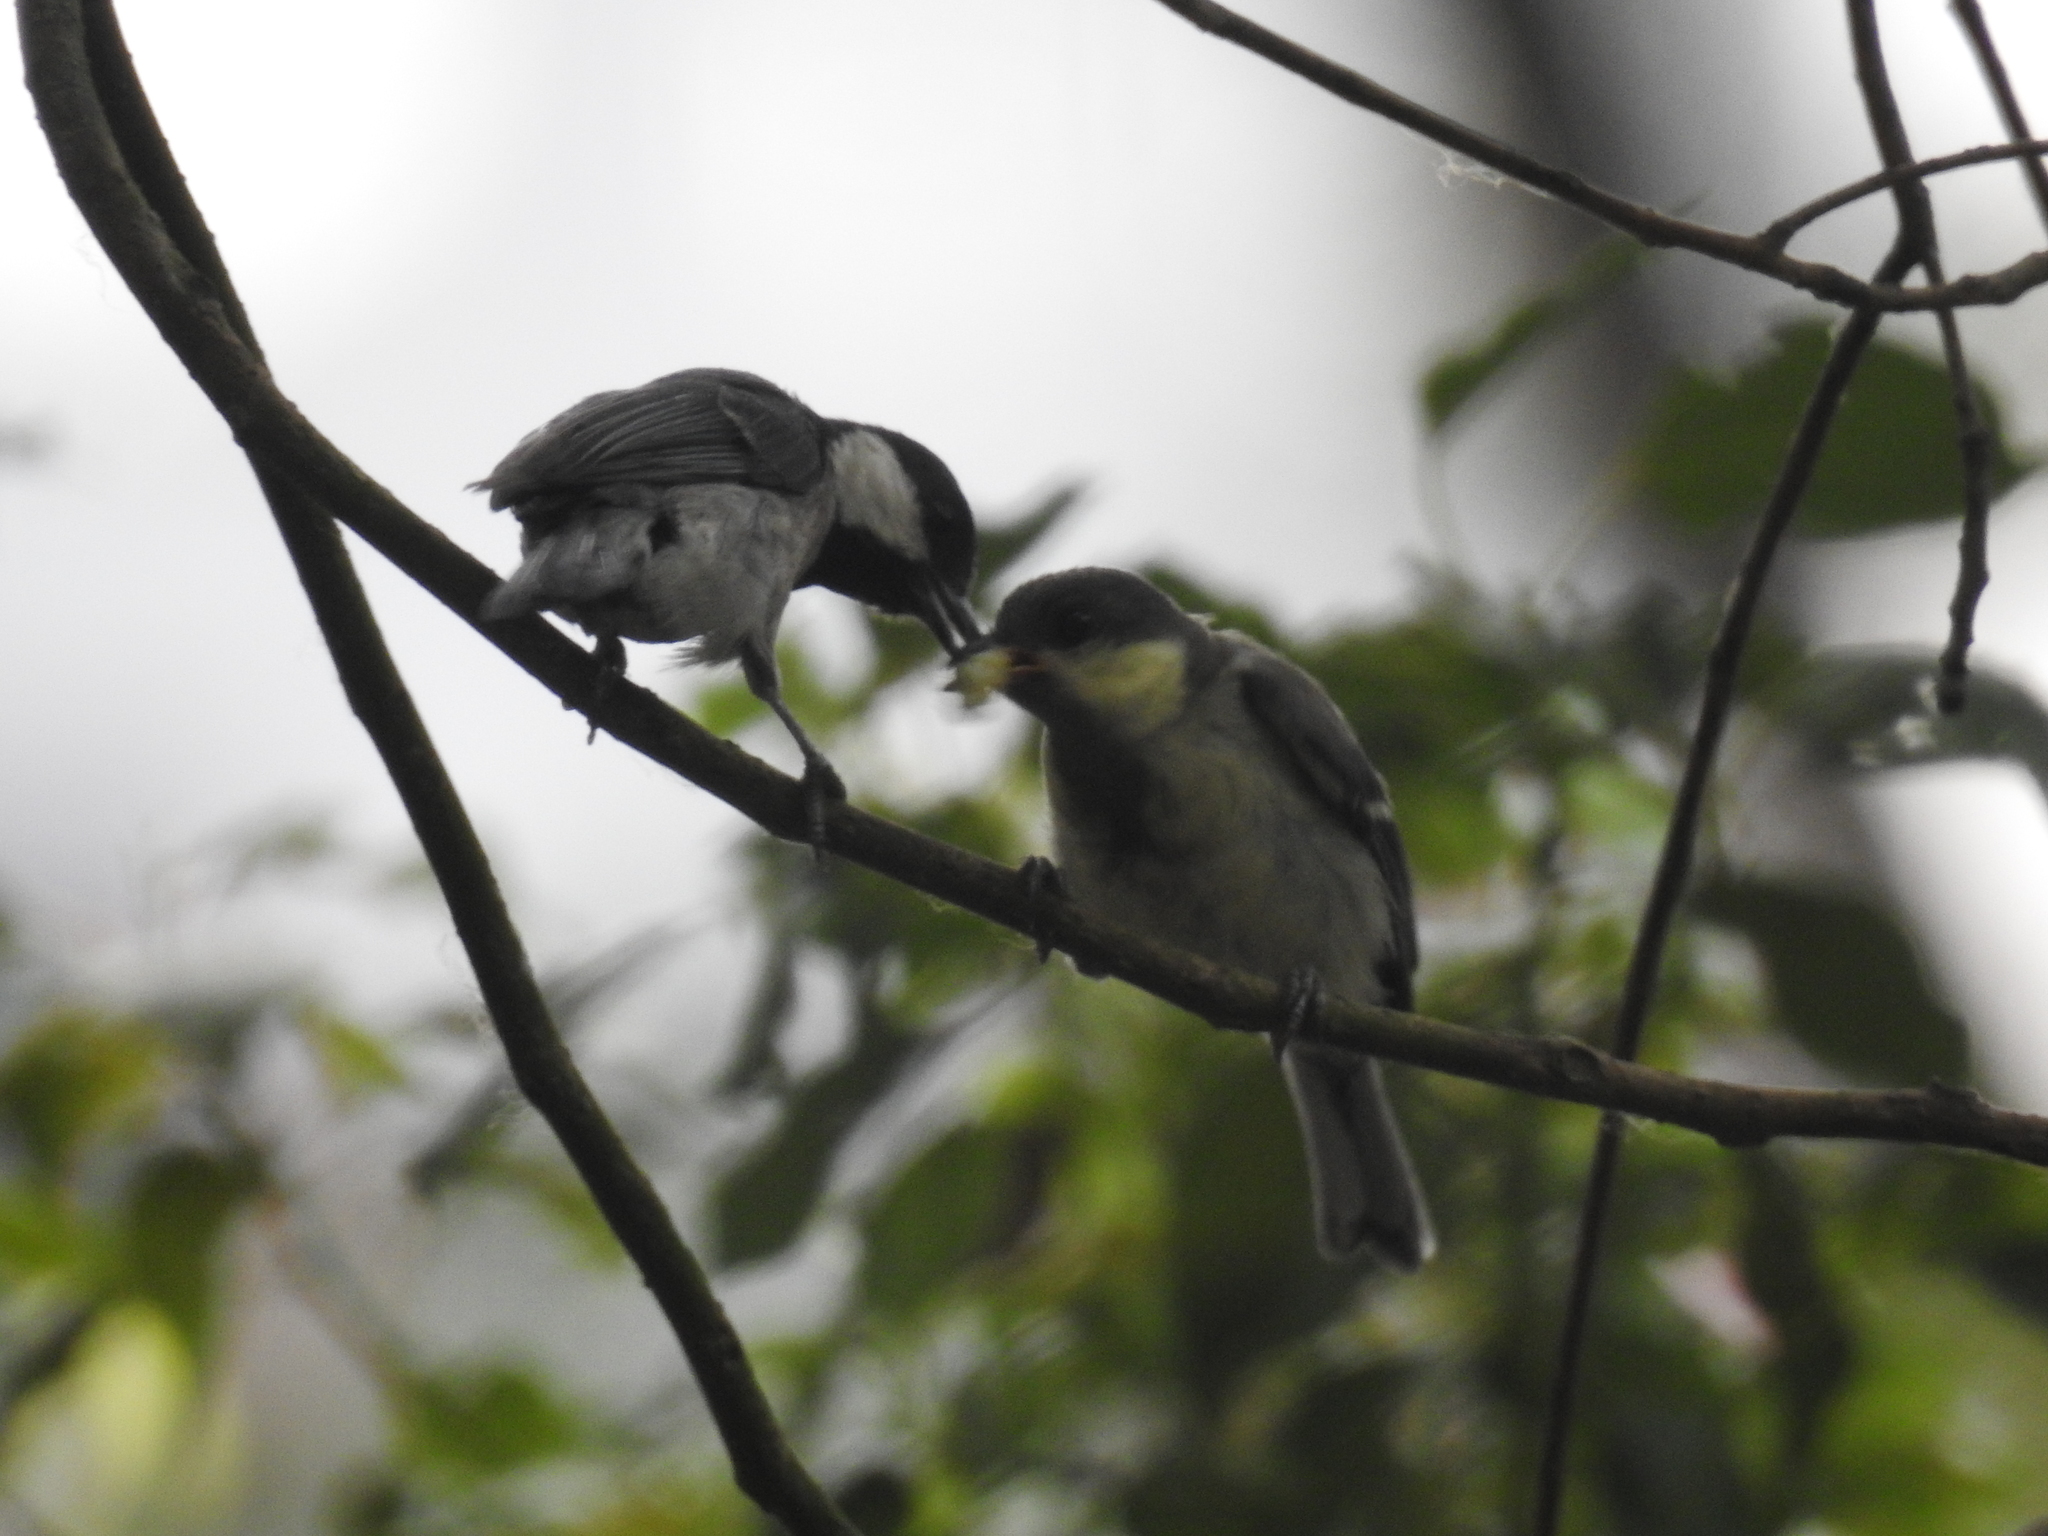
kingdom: Animalia
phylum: Chordata
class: Aves
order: Passeriformes
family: Paridae
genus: Parus
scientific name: Parus minor
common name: Japanese tit
